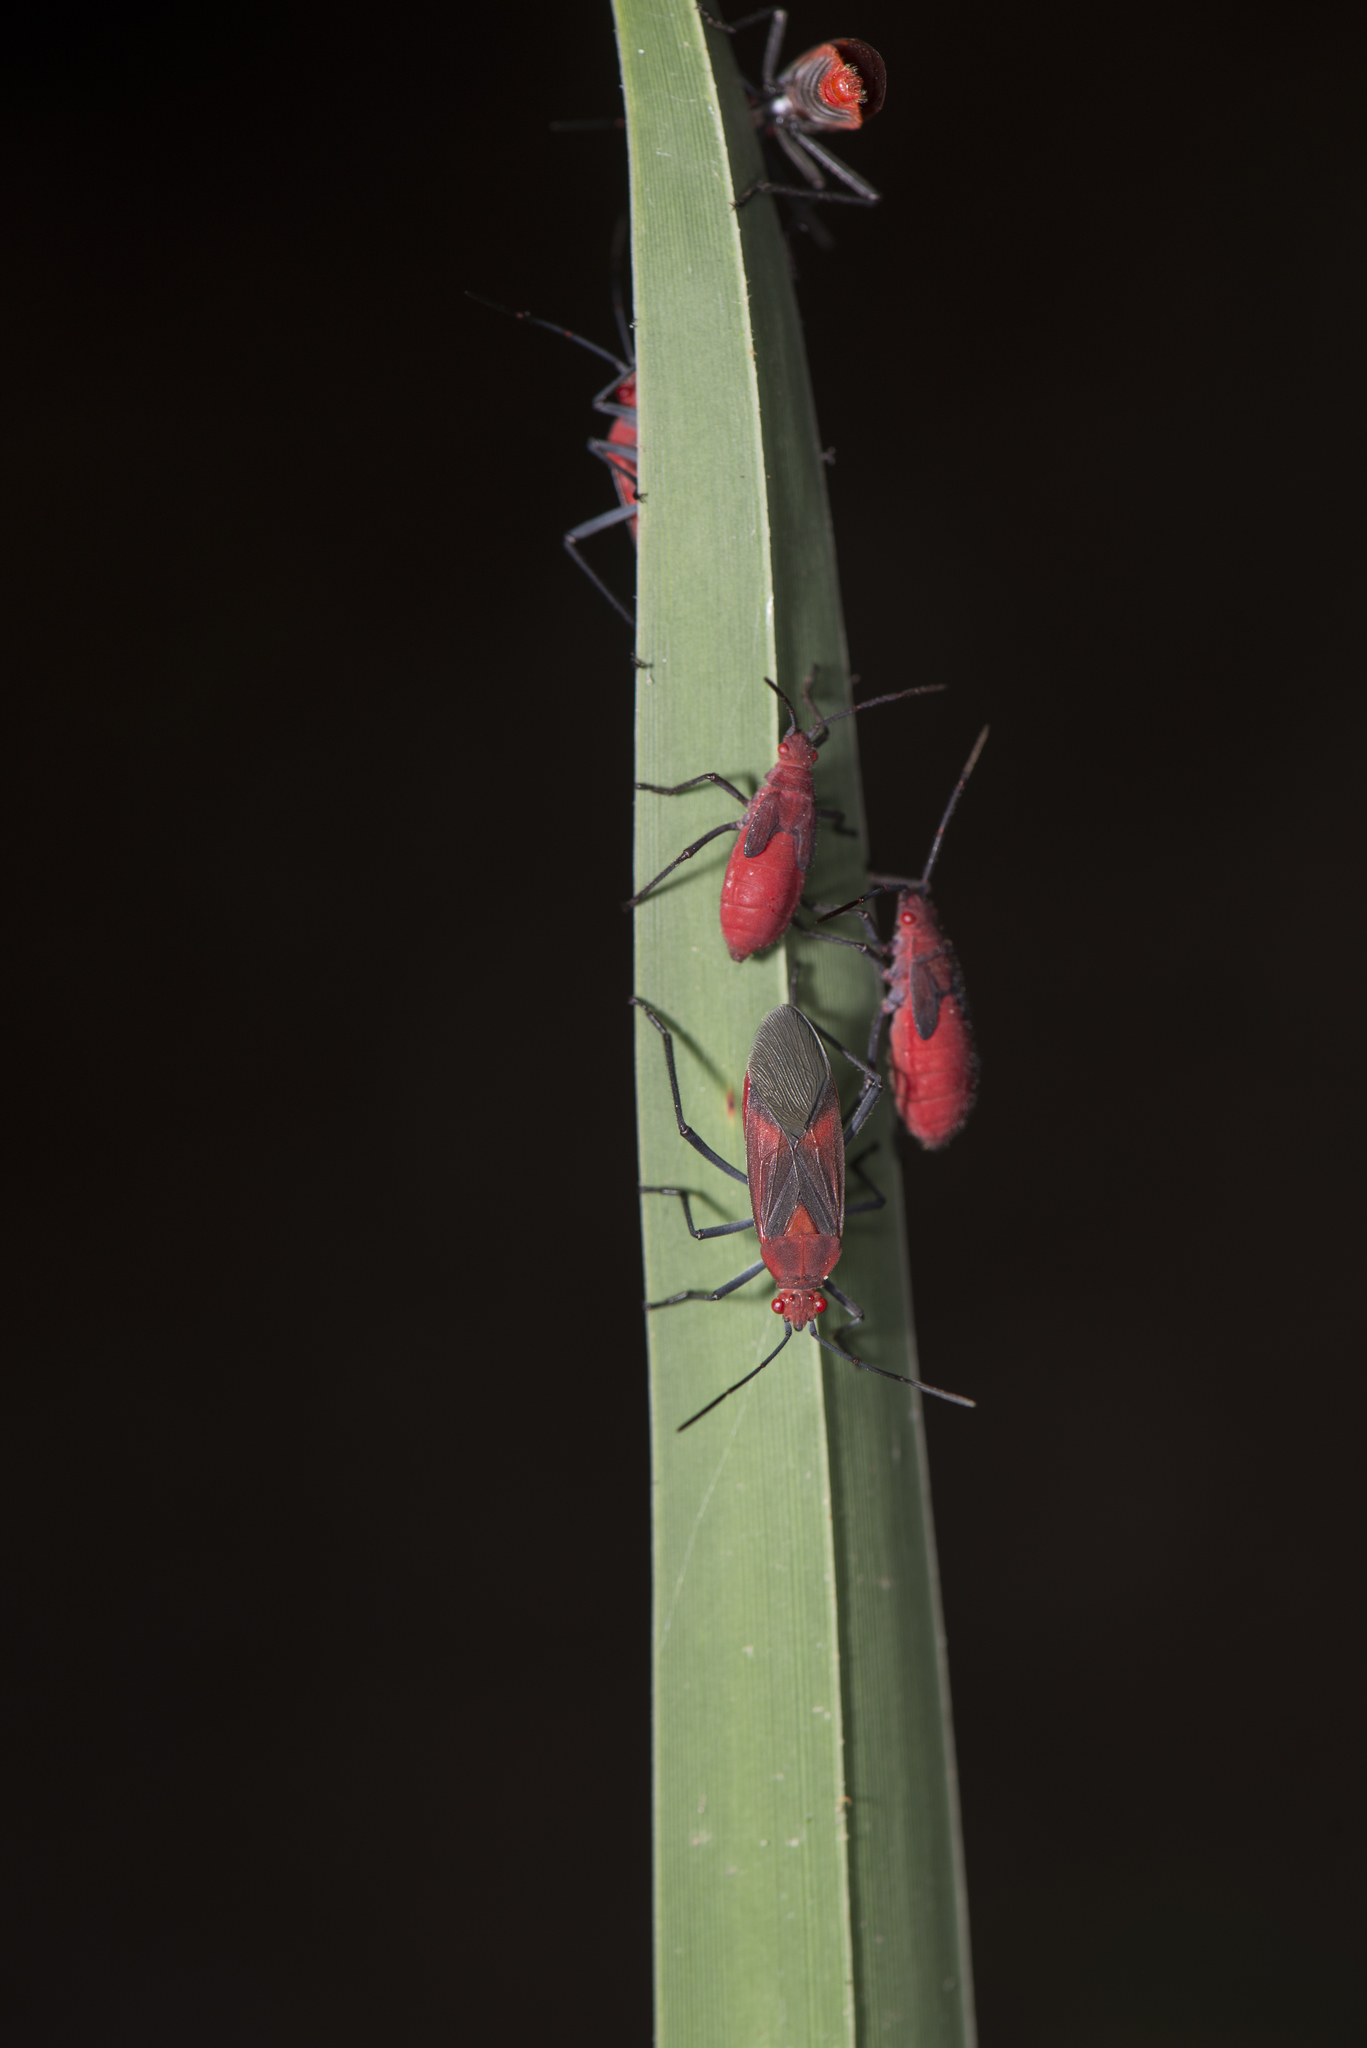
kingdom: Animalia
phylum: Arthropoda
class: Insecta
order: Hemiptera
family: Rhopalidae
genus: Leptocoris
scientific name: Leptocoris vicinus
